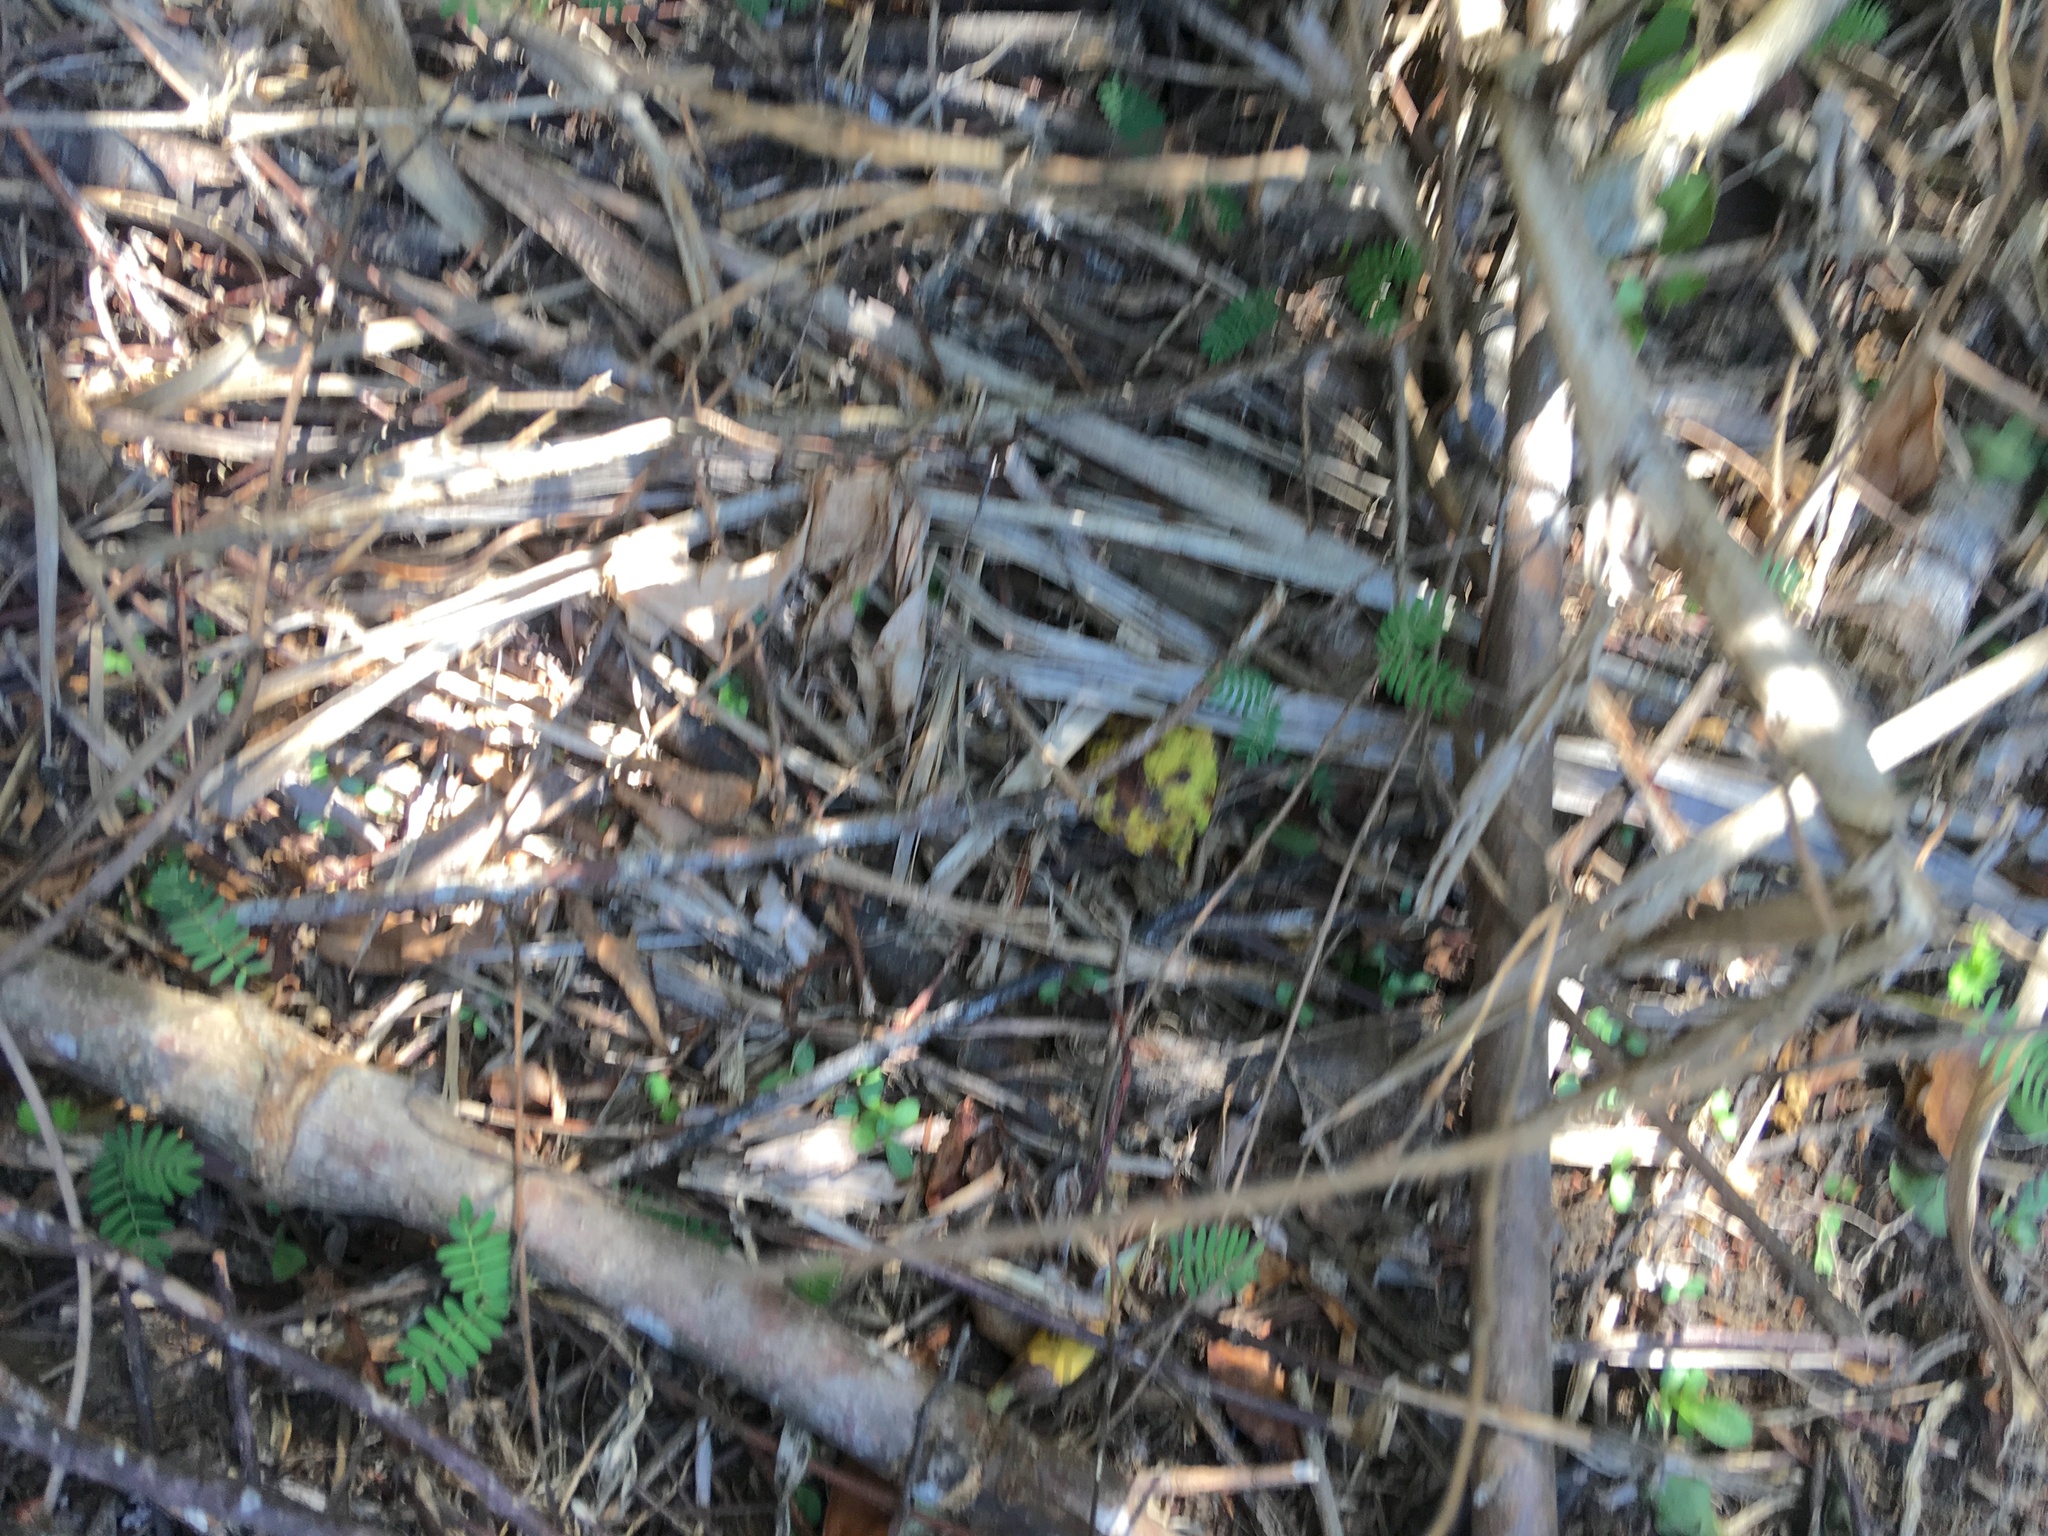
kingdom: Plantae
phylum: Tracheophyta
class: Magnoliopsida
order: Fabales
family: Fabaceae
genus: Paraserianthes
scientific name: Paraserianthes lophantha
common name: Plume albizia
